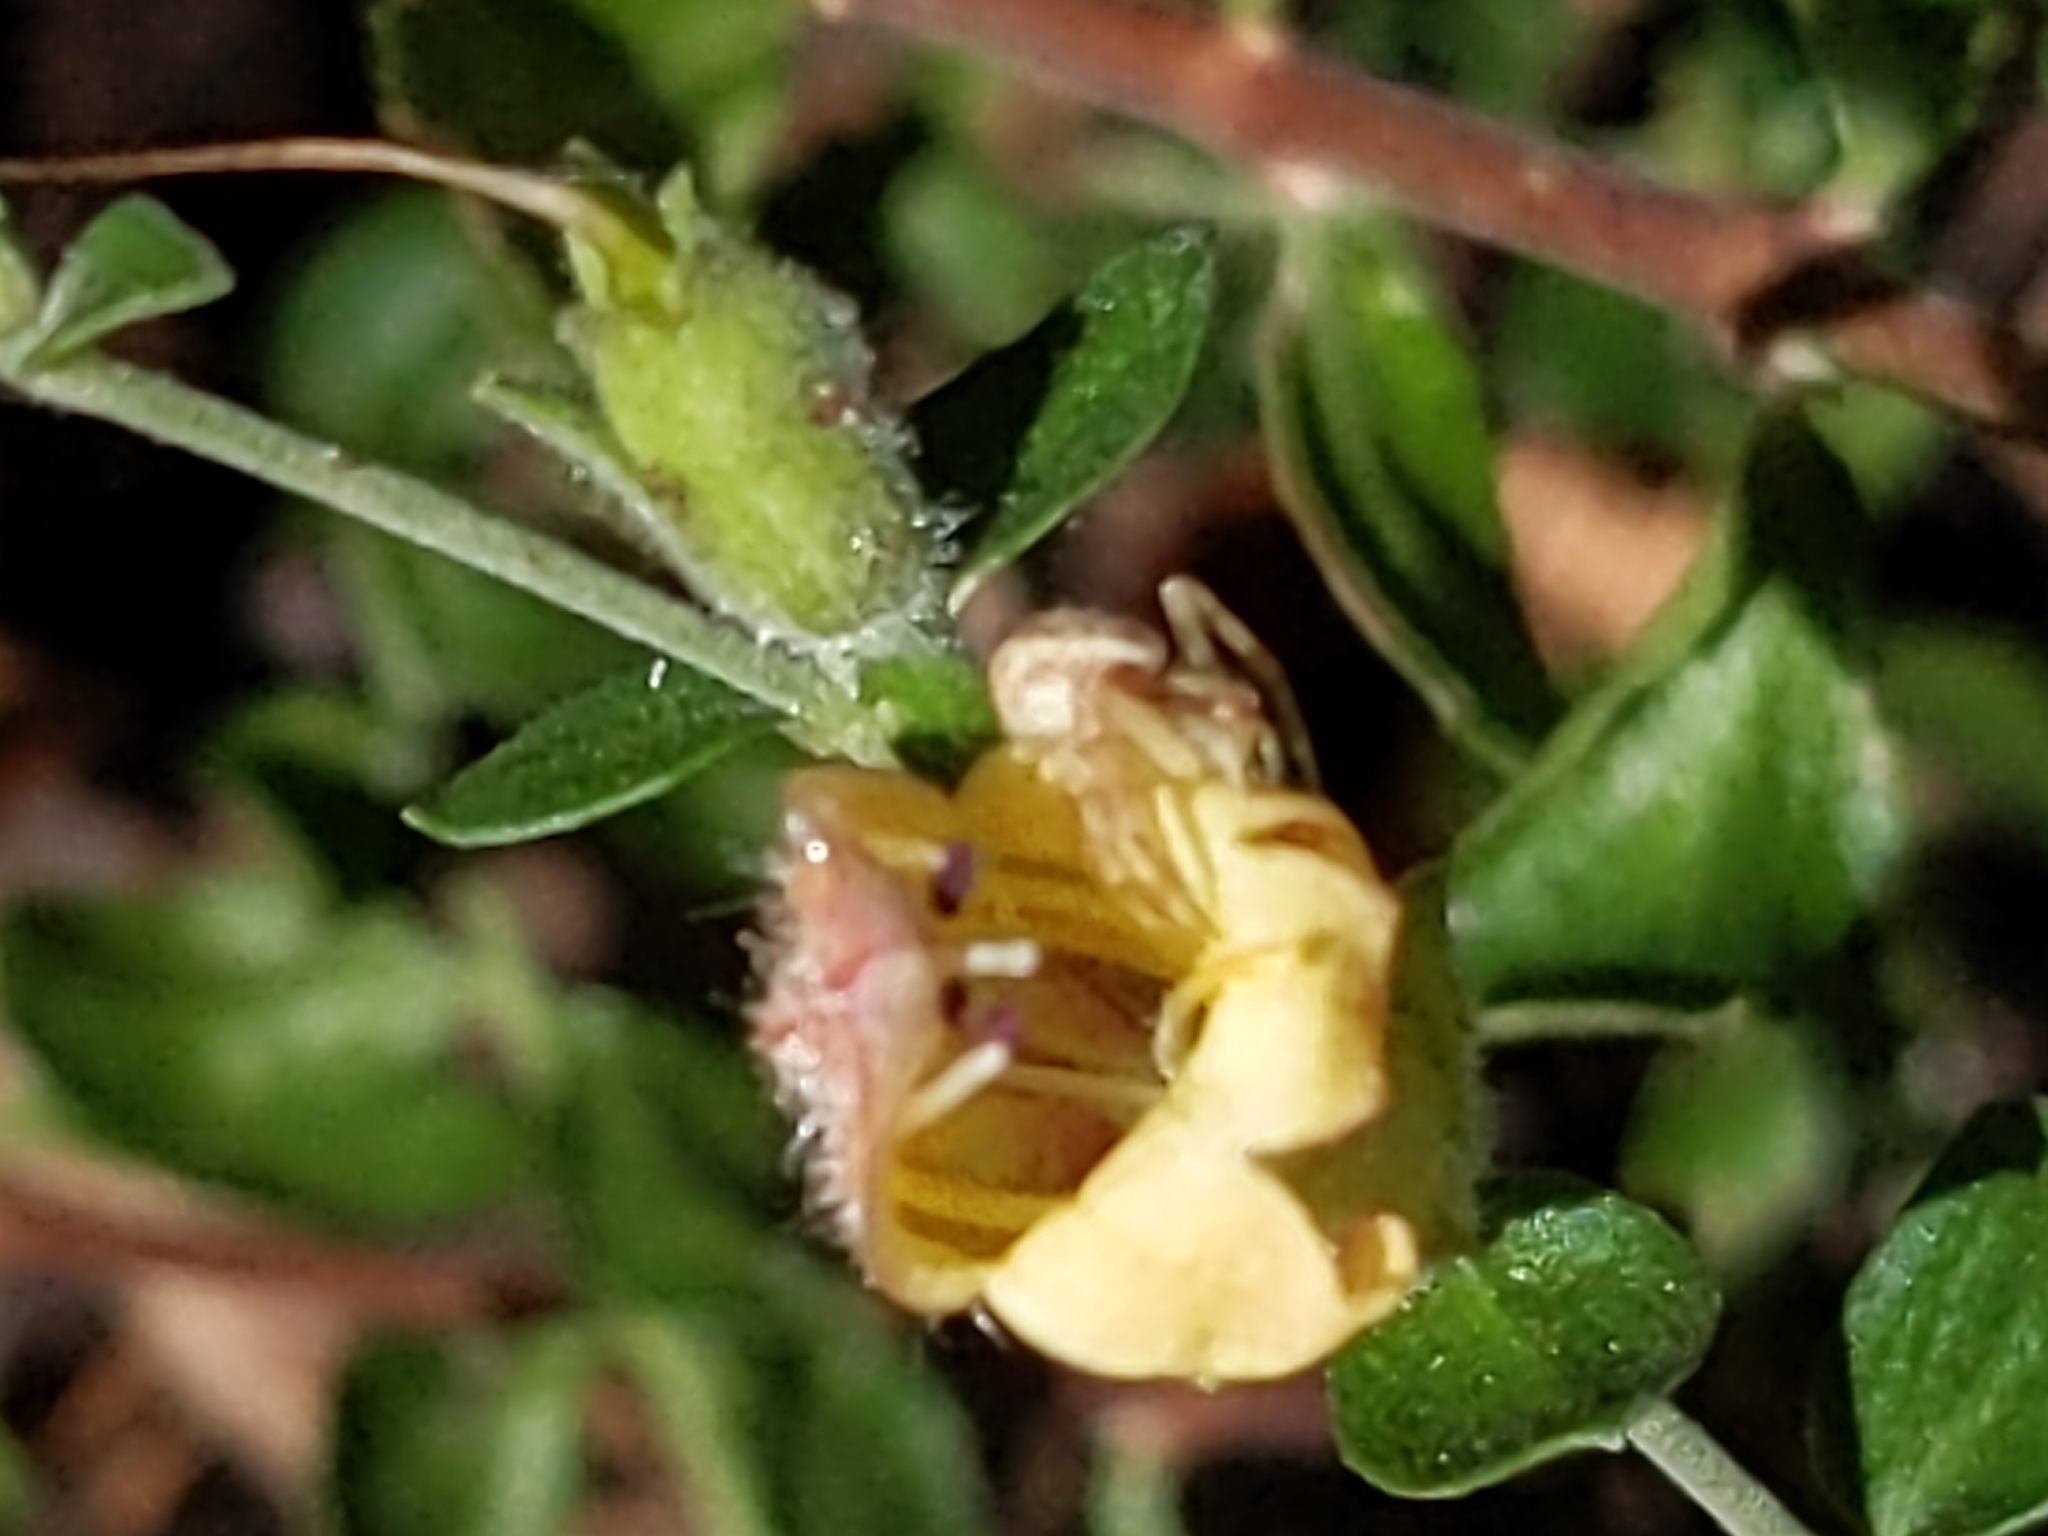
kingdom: Plantae
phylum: Tracheophyta
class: Magnoliopsida
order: Lamiales
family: Plantaginaceae
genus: Keckiella
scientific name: Keckiella rothrockii
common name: Rothrock's keckiella
